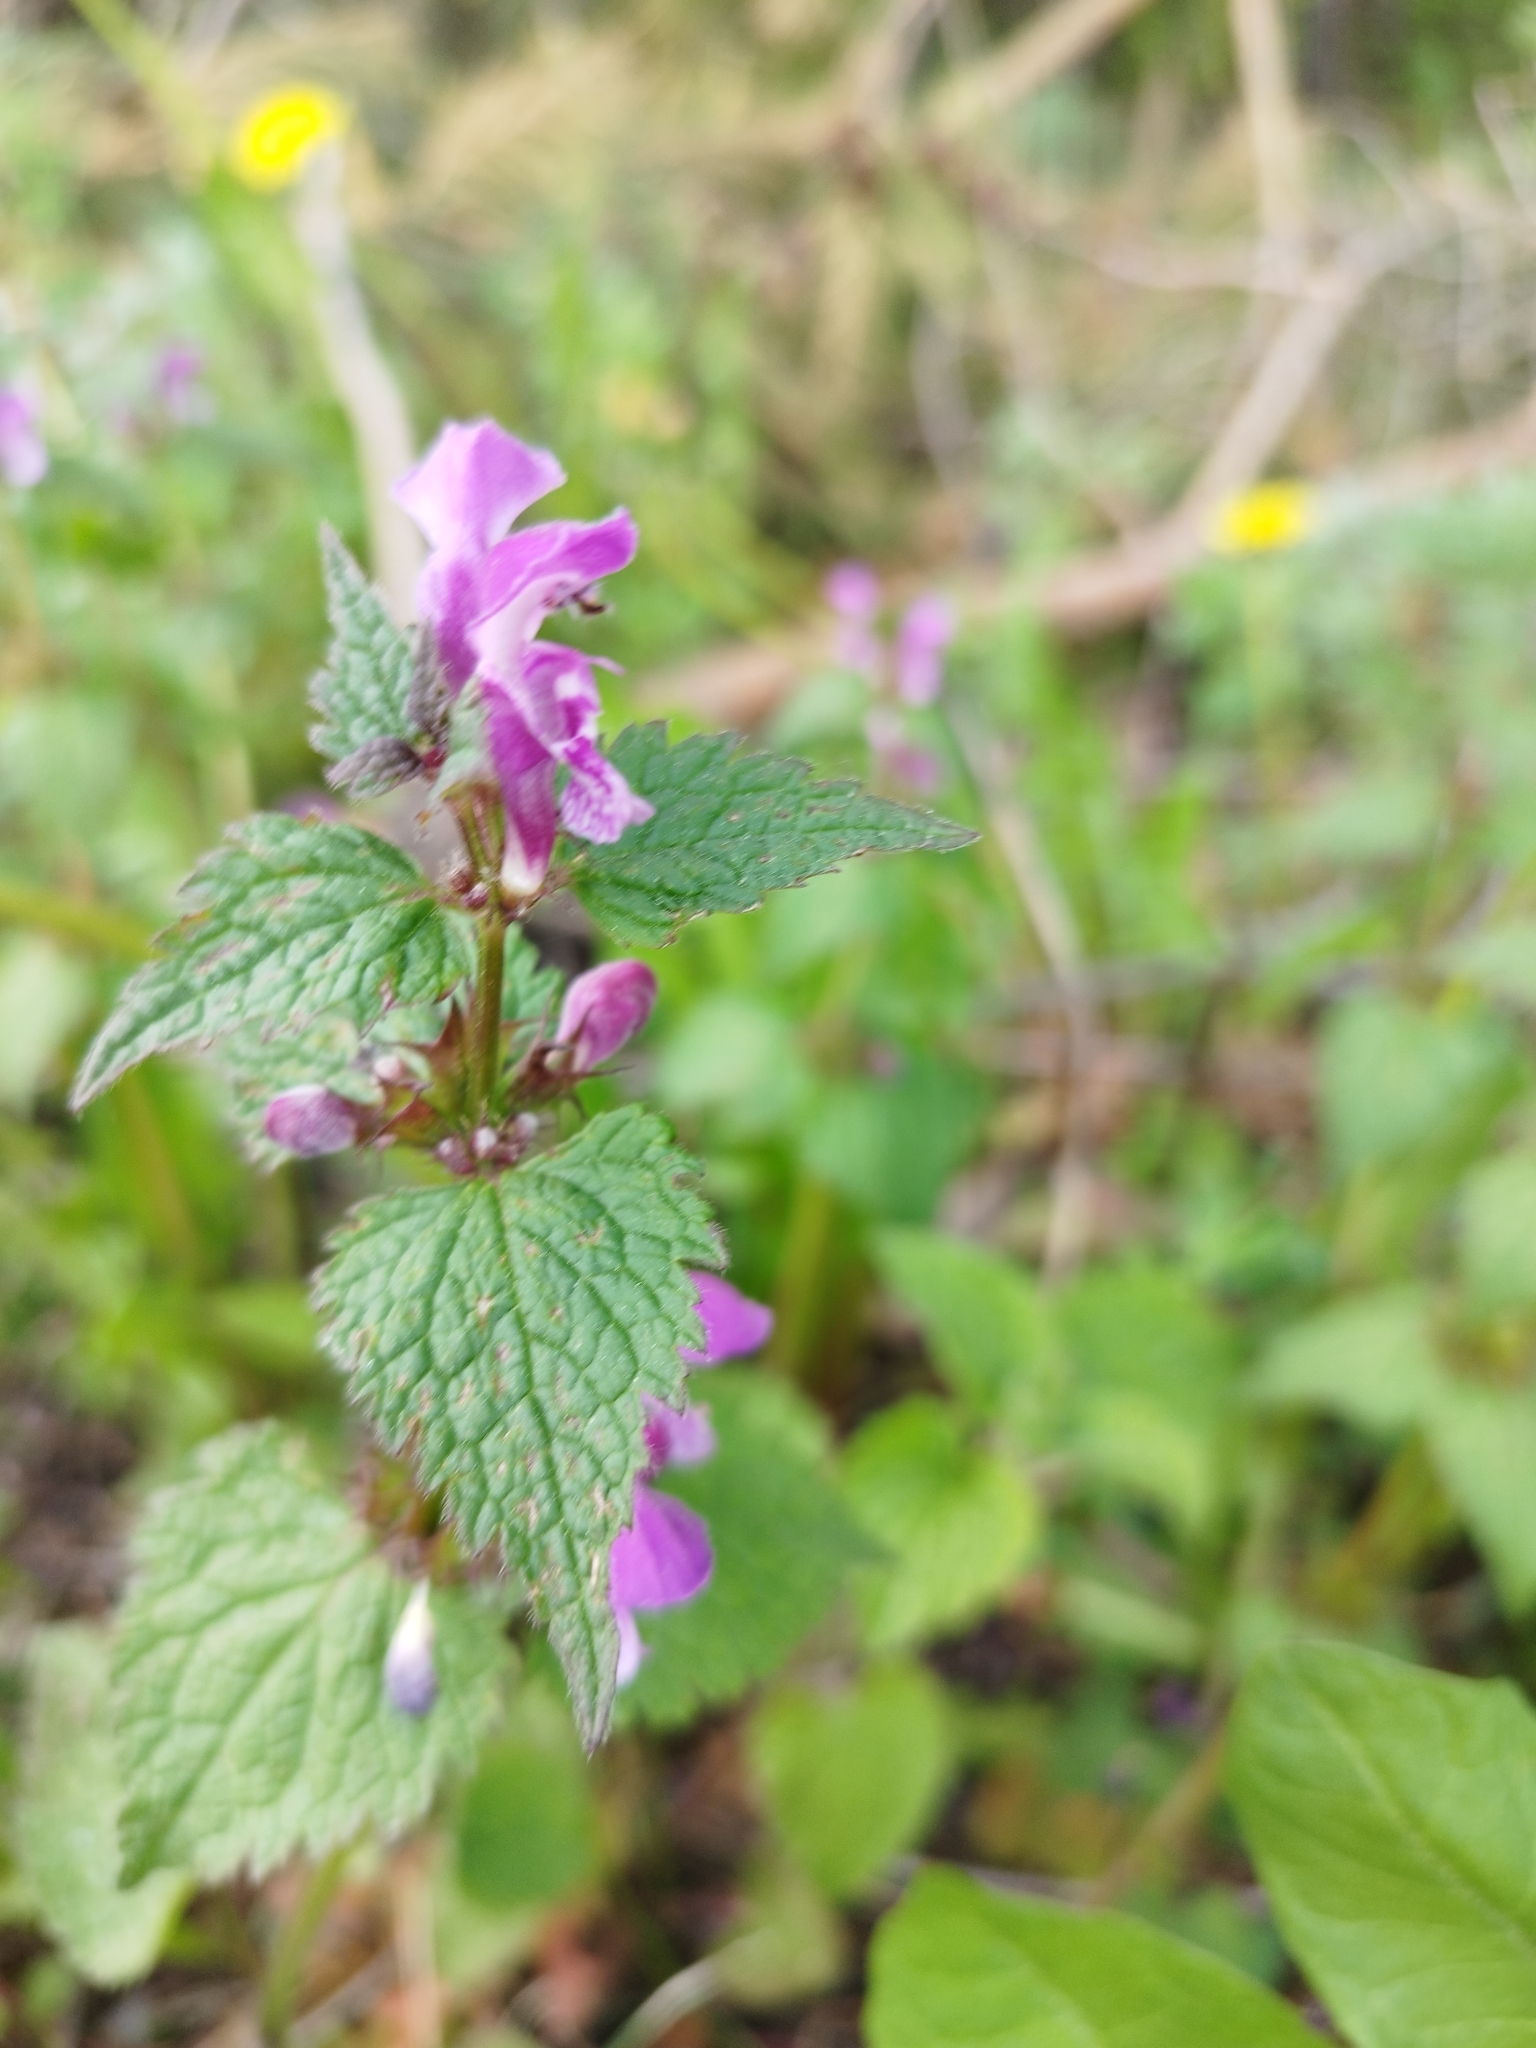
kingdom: Plantae
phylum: Tracheophyta
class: Magnoliopsida
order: Lamiales
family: Lamiaceae
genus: Lamium
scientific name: Lamium maculatum
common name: Spotted dead-nettle
